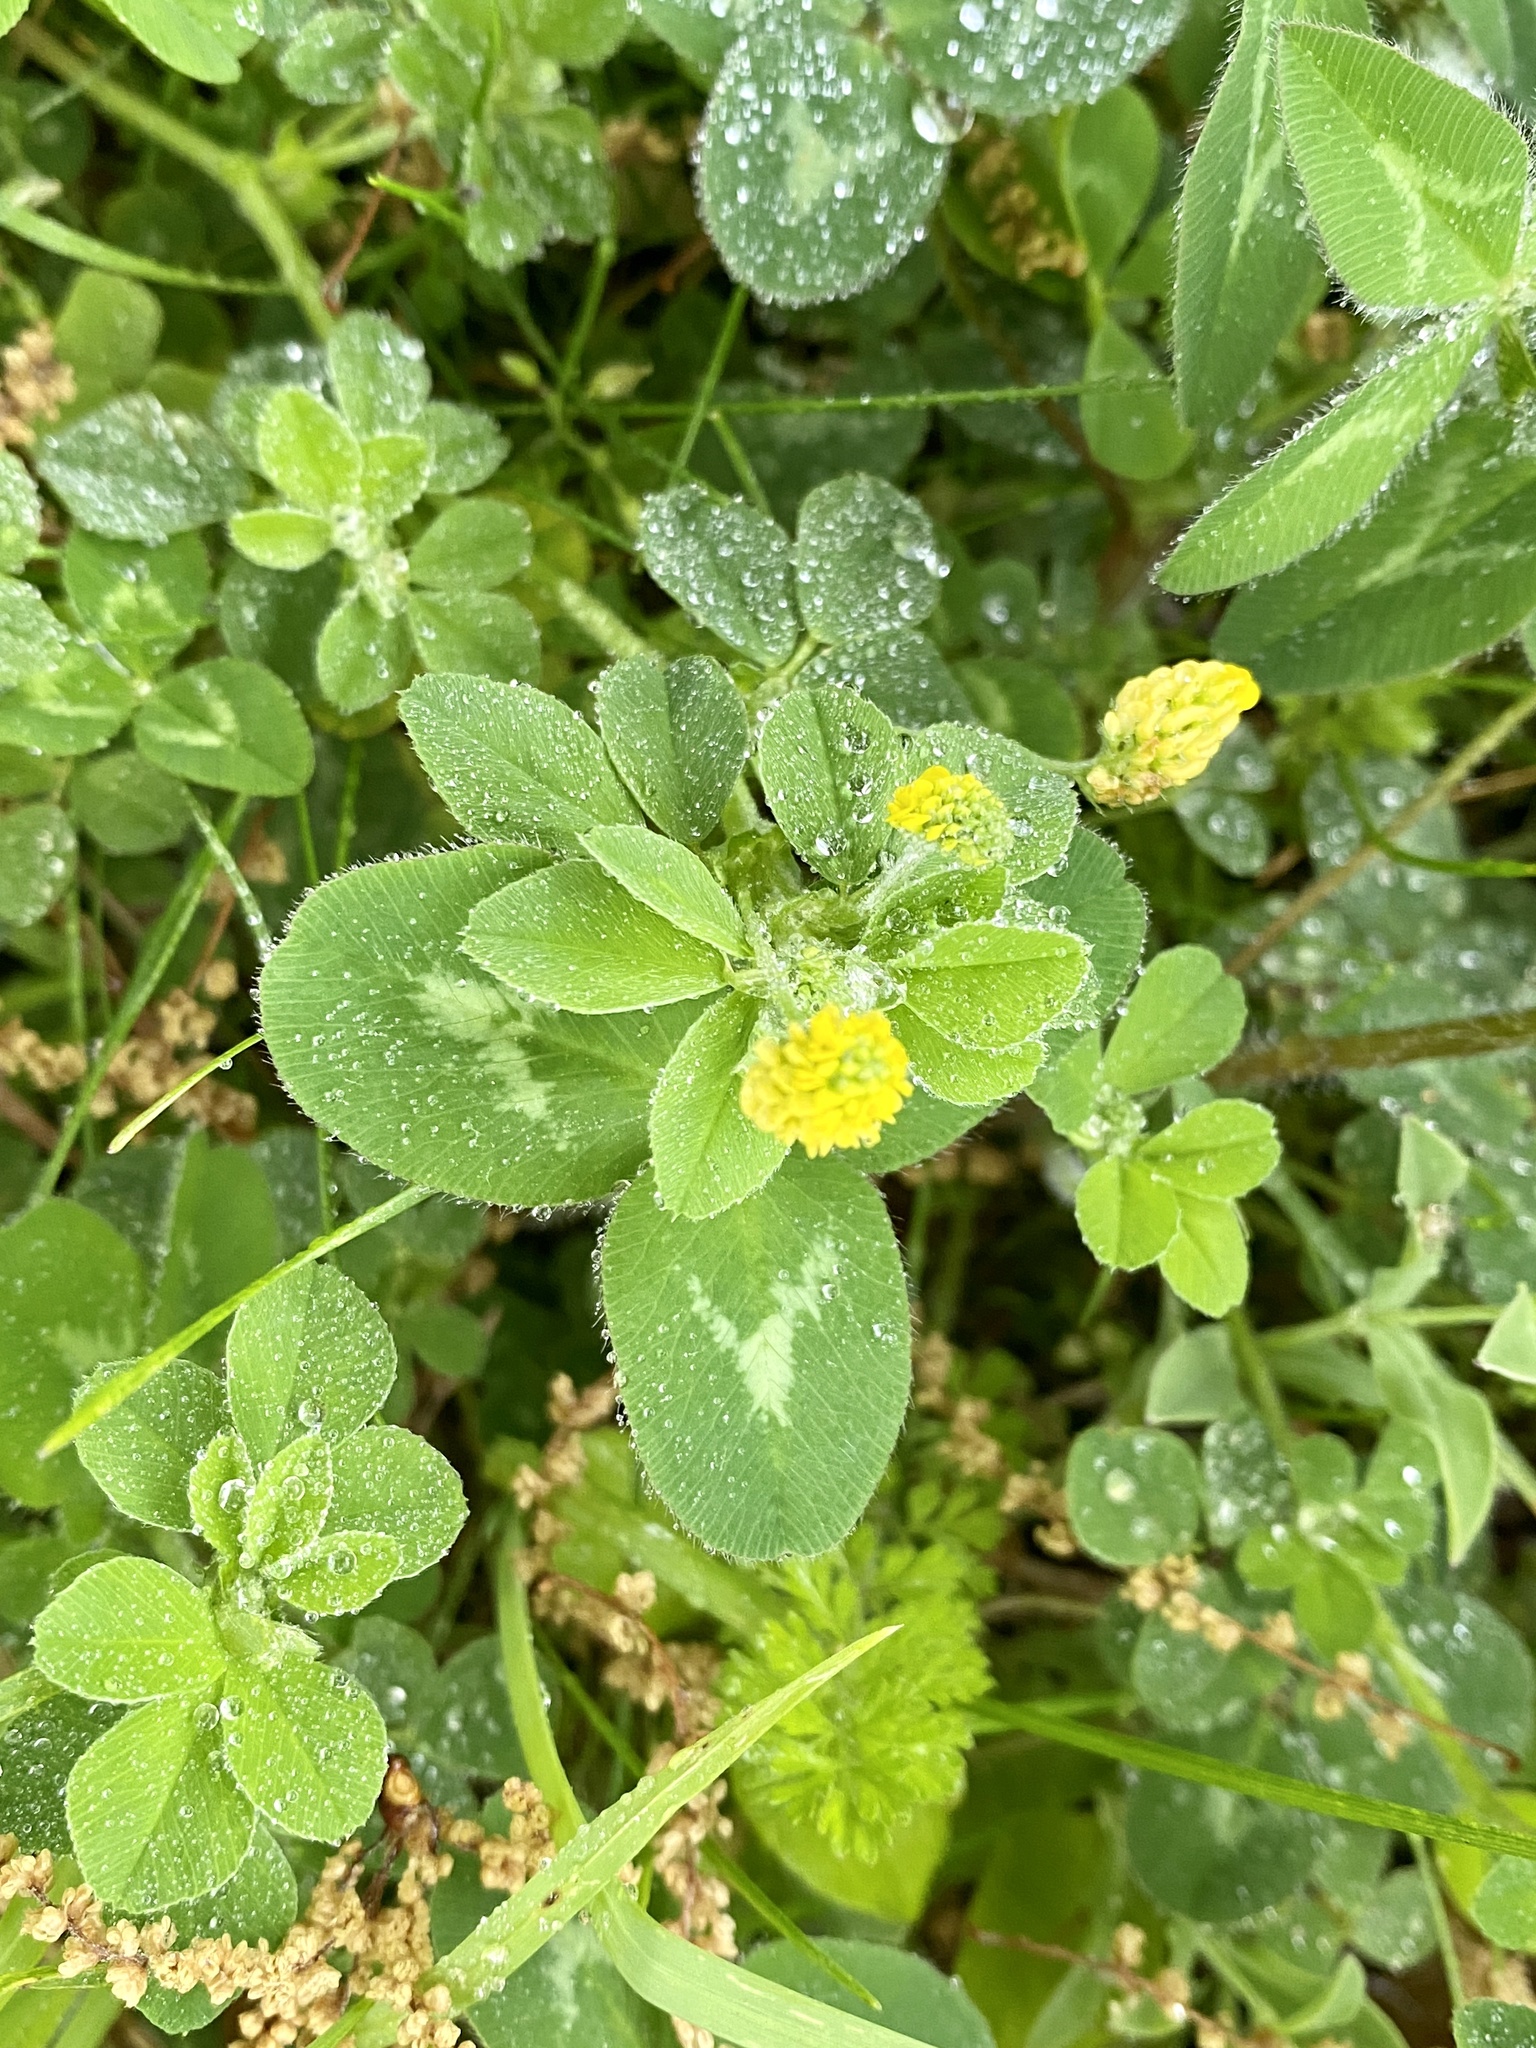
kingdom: Plantae
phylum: Tracheophyta
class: Magnoliopsida
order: Fabales
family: Fabaceae
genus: Medicago
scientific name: Medicago lupulina
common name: Black medick
